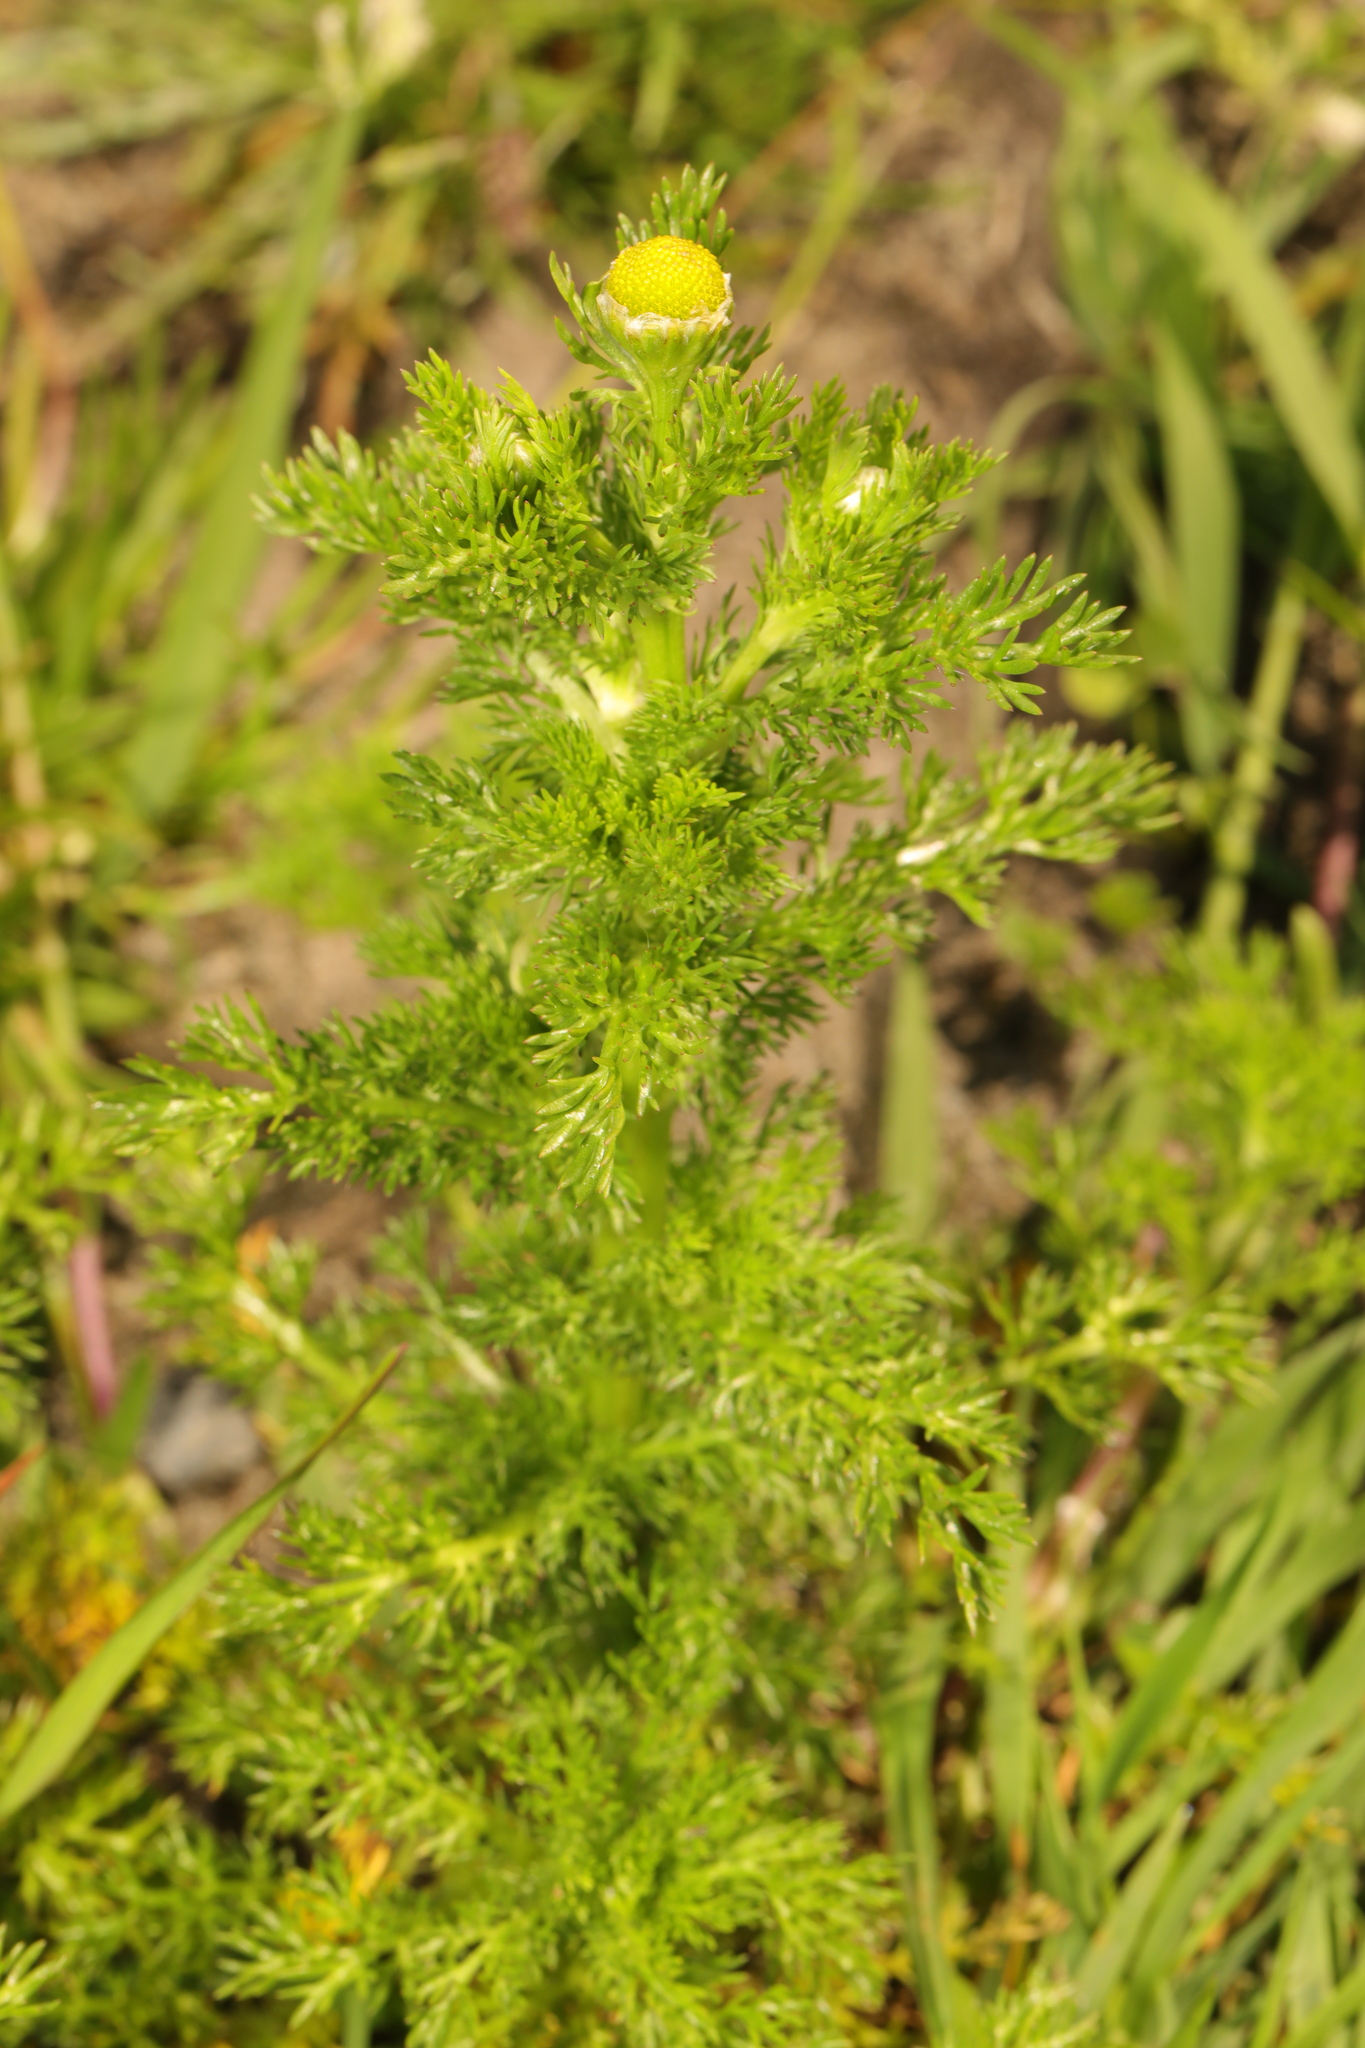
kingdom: Plantae
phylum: Tracheophyta
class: Magnoliopsida
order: Asterales
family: Asteraceae
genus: Matricaria
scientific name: Matricaria discoidea
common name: Disc mayweed
